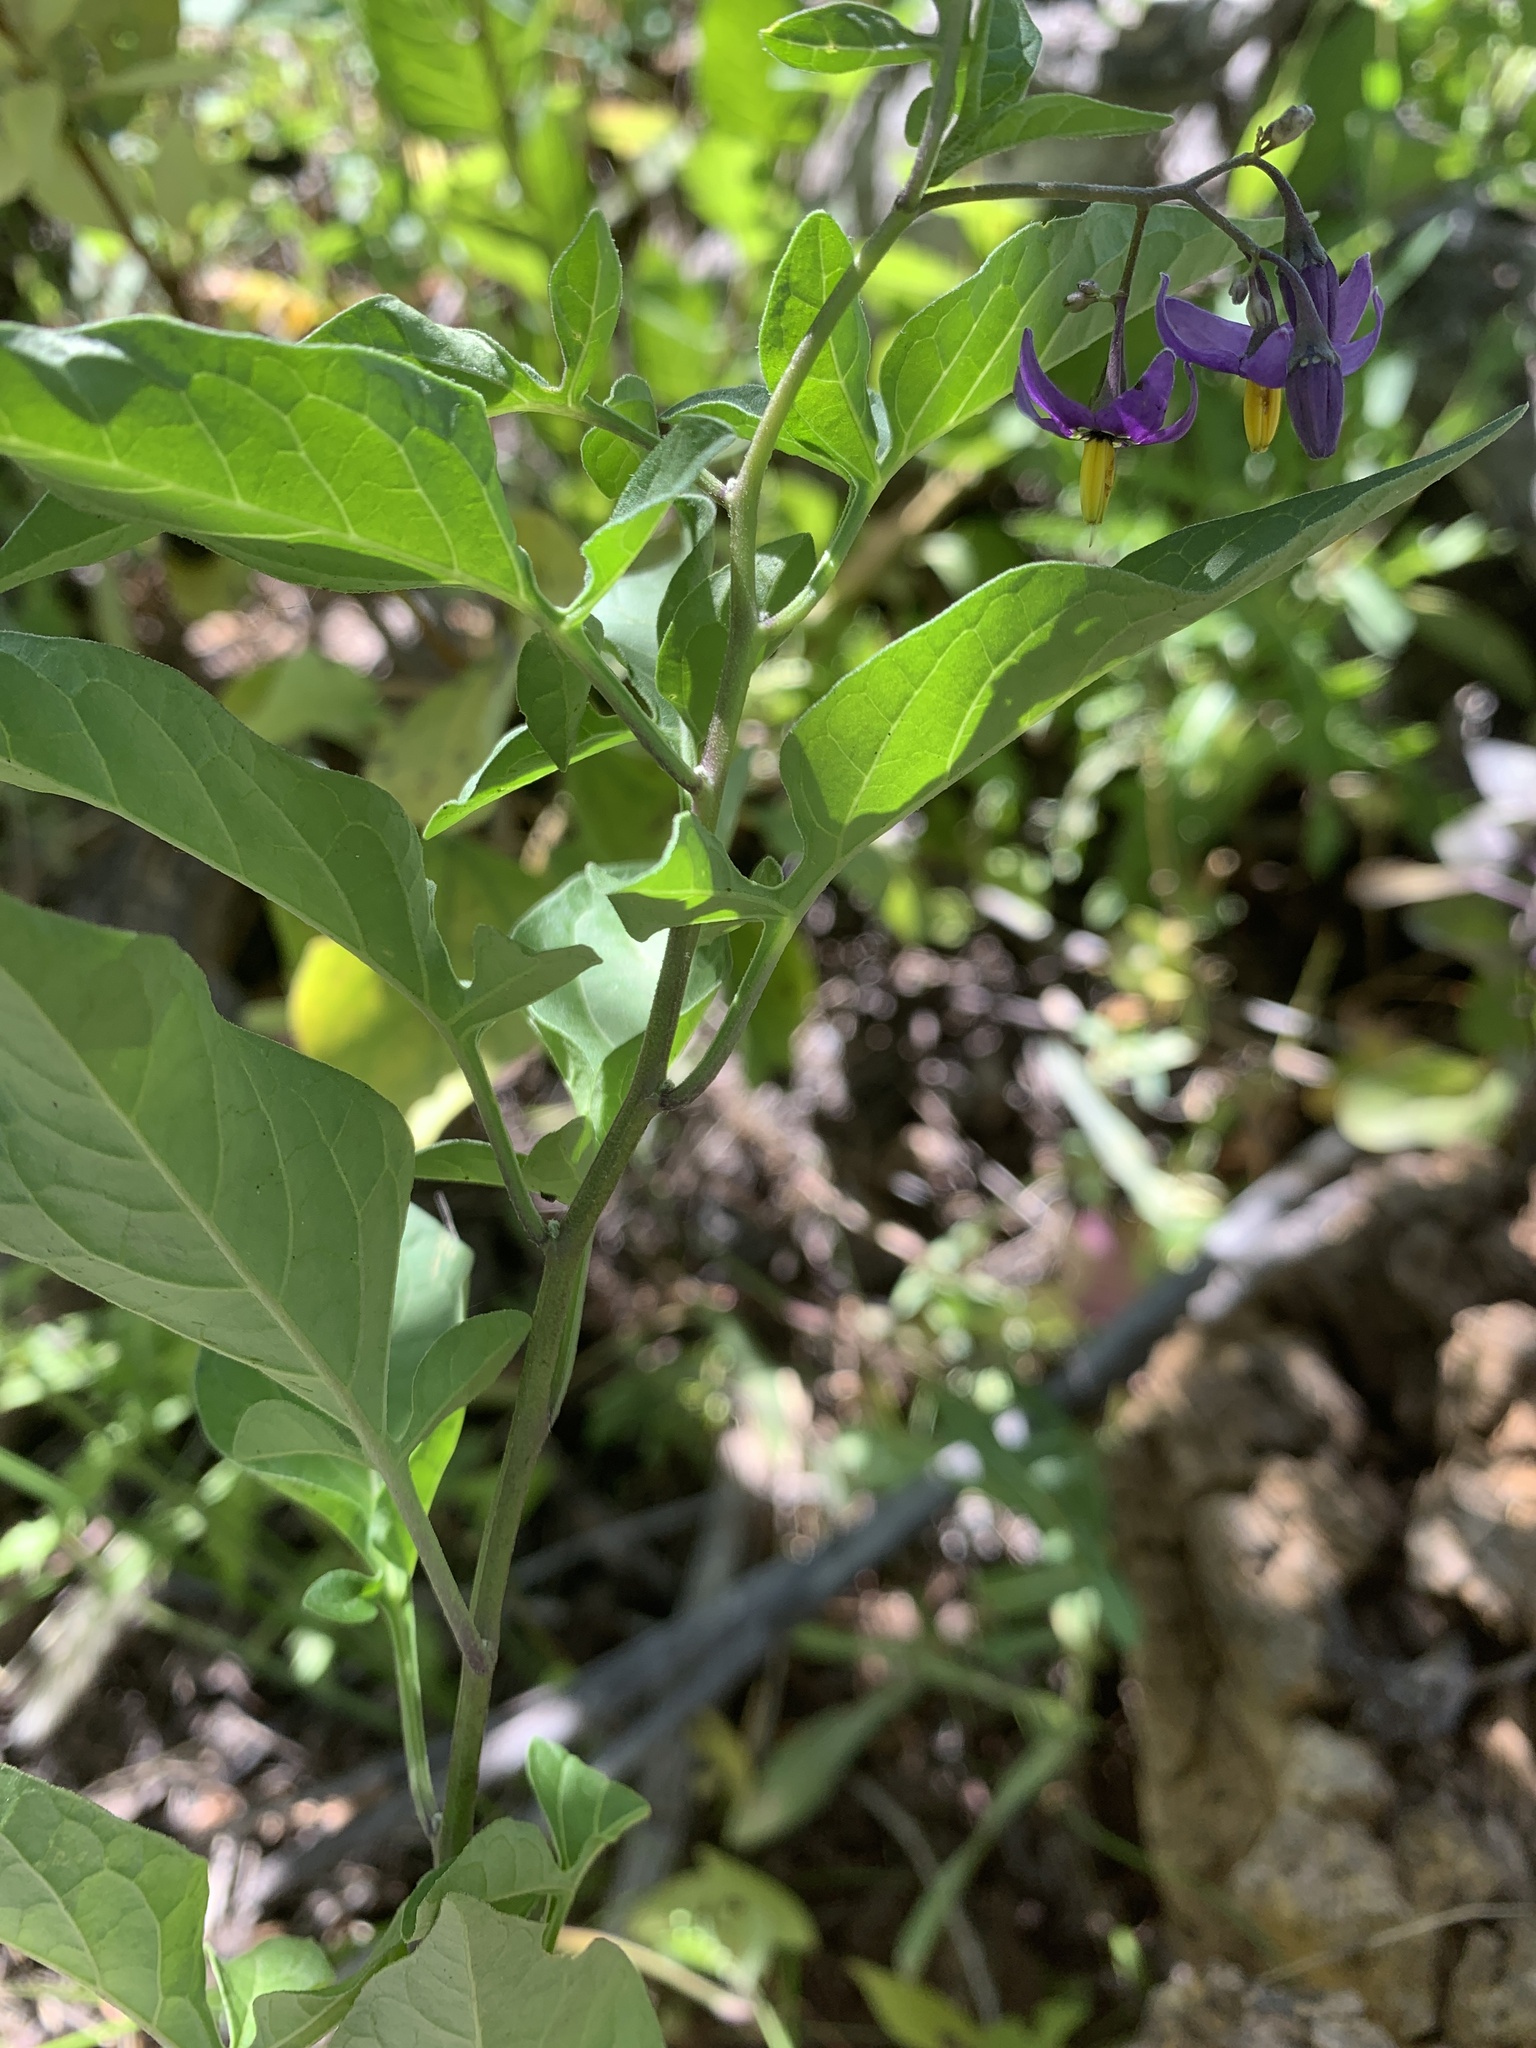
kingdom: Plantae
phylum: Tracheophyta
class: Magnoliopsida
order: Solanales
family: Solanaceae
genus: Solanum
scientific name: Solanum dulcamara
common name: Climbing nightshade
